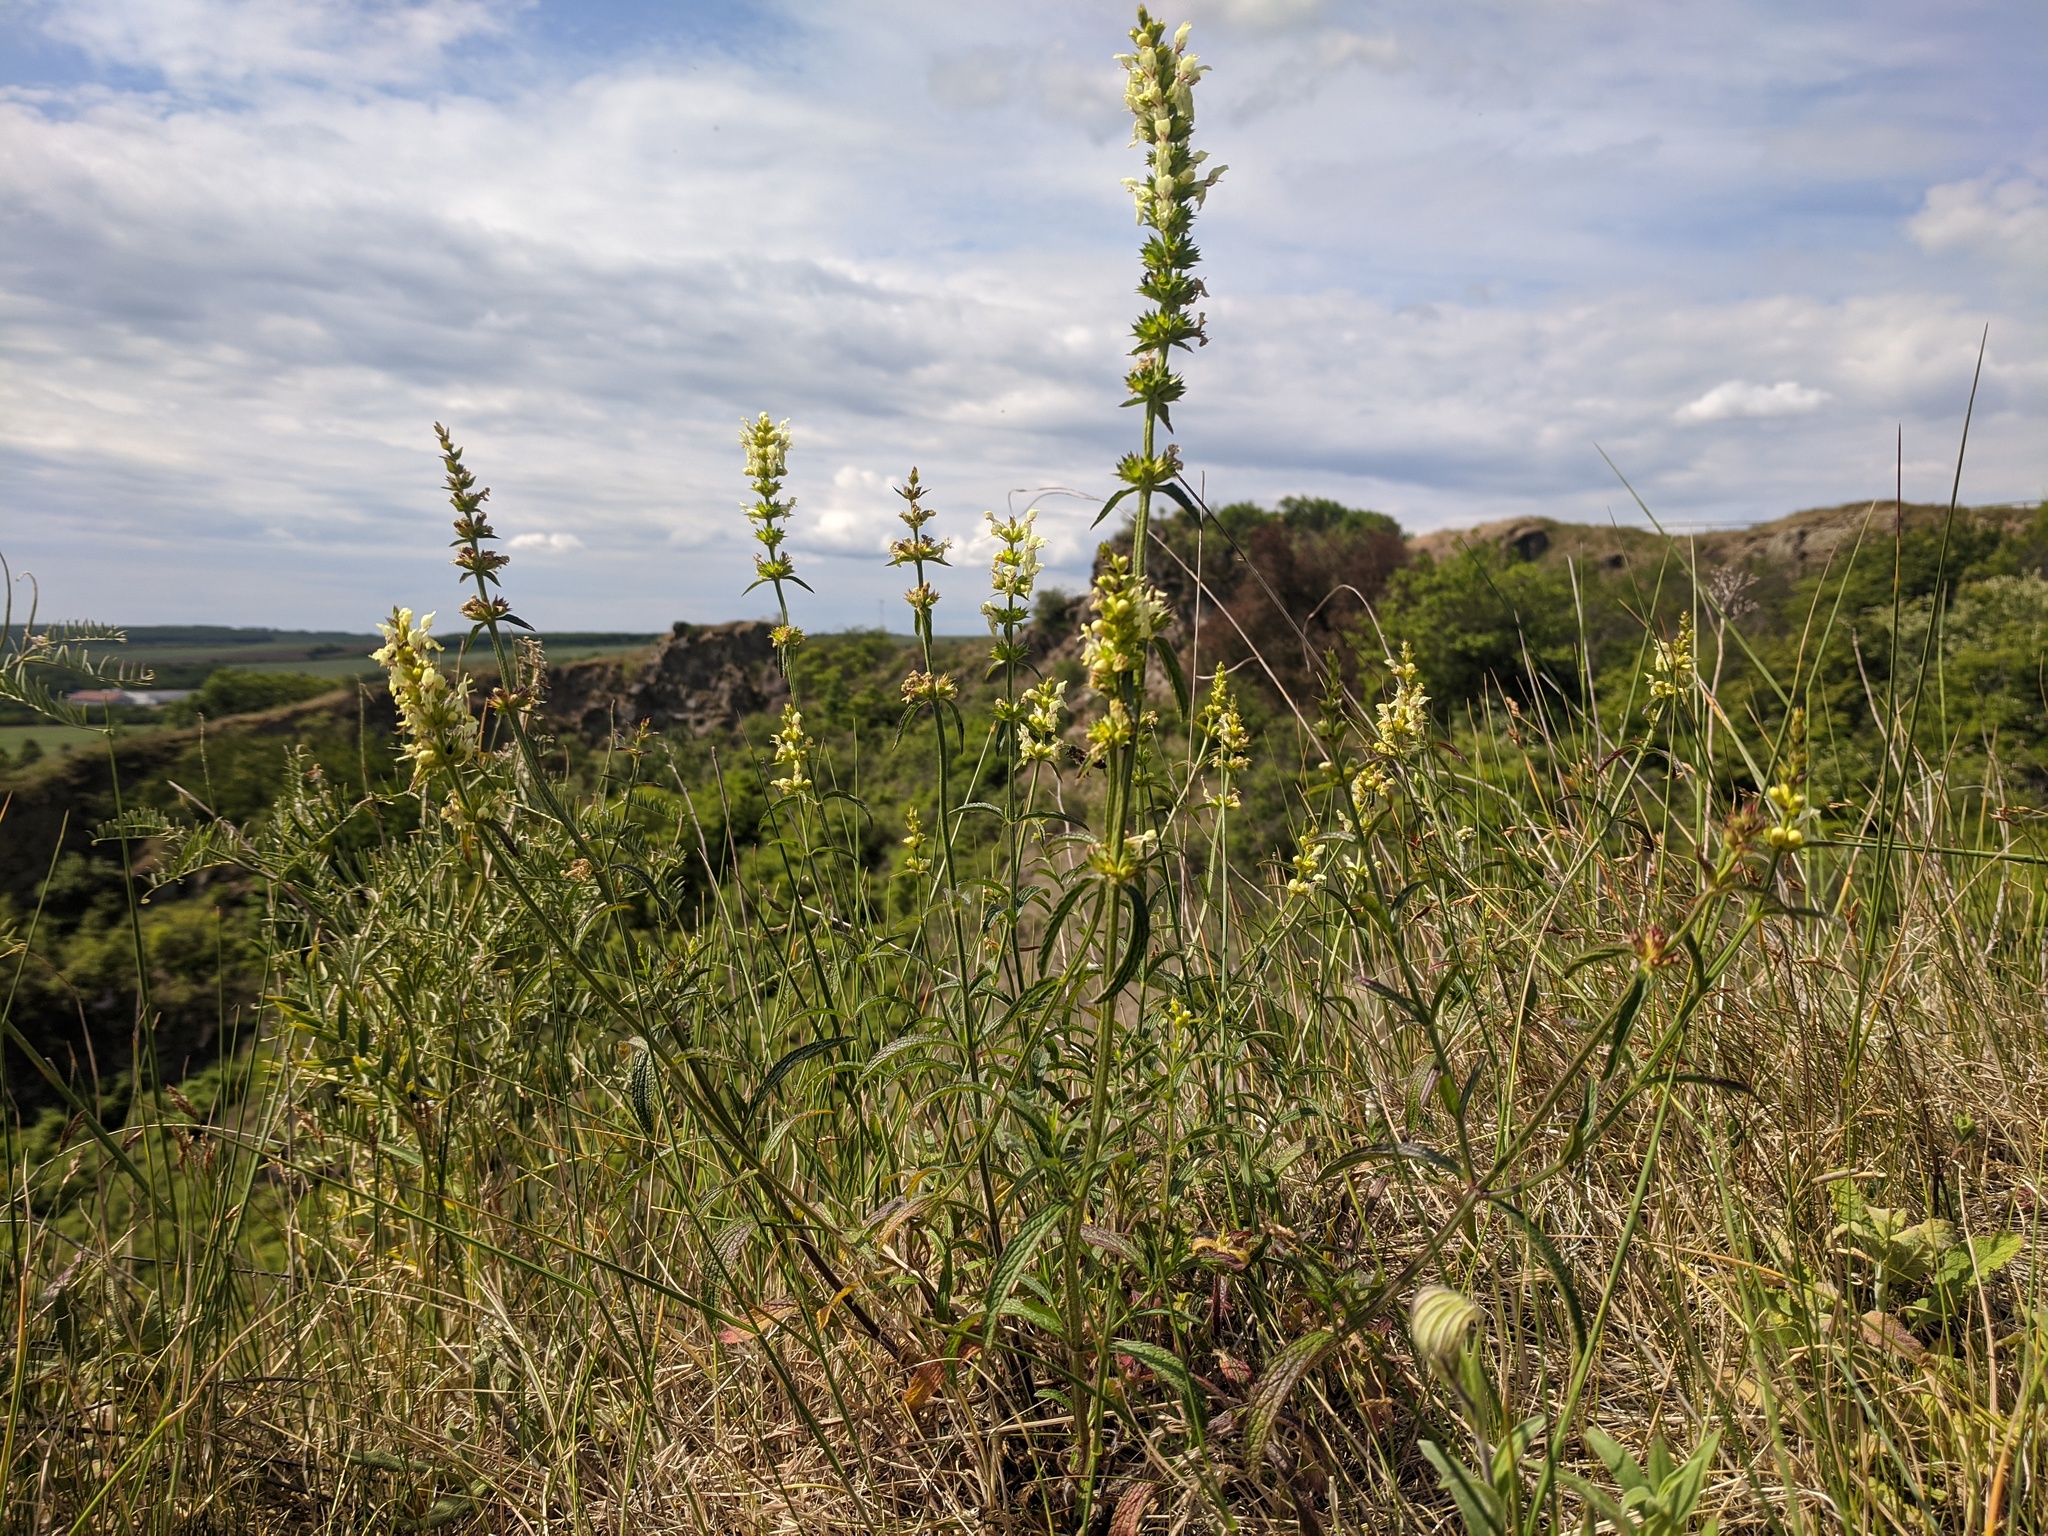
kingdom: Plantae
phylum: Tracheophyta
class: Magnoliopsida
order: Lamiales
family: Lamiaceae
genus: Stachys
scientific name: Stachys recta
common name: Perennial yellow-woundwort
